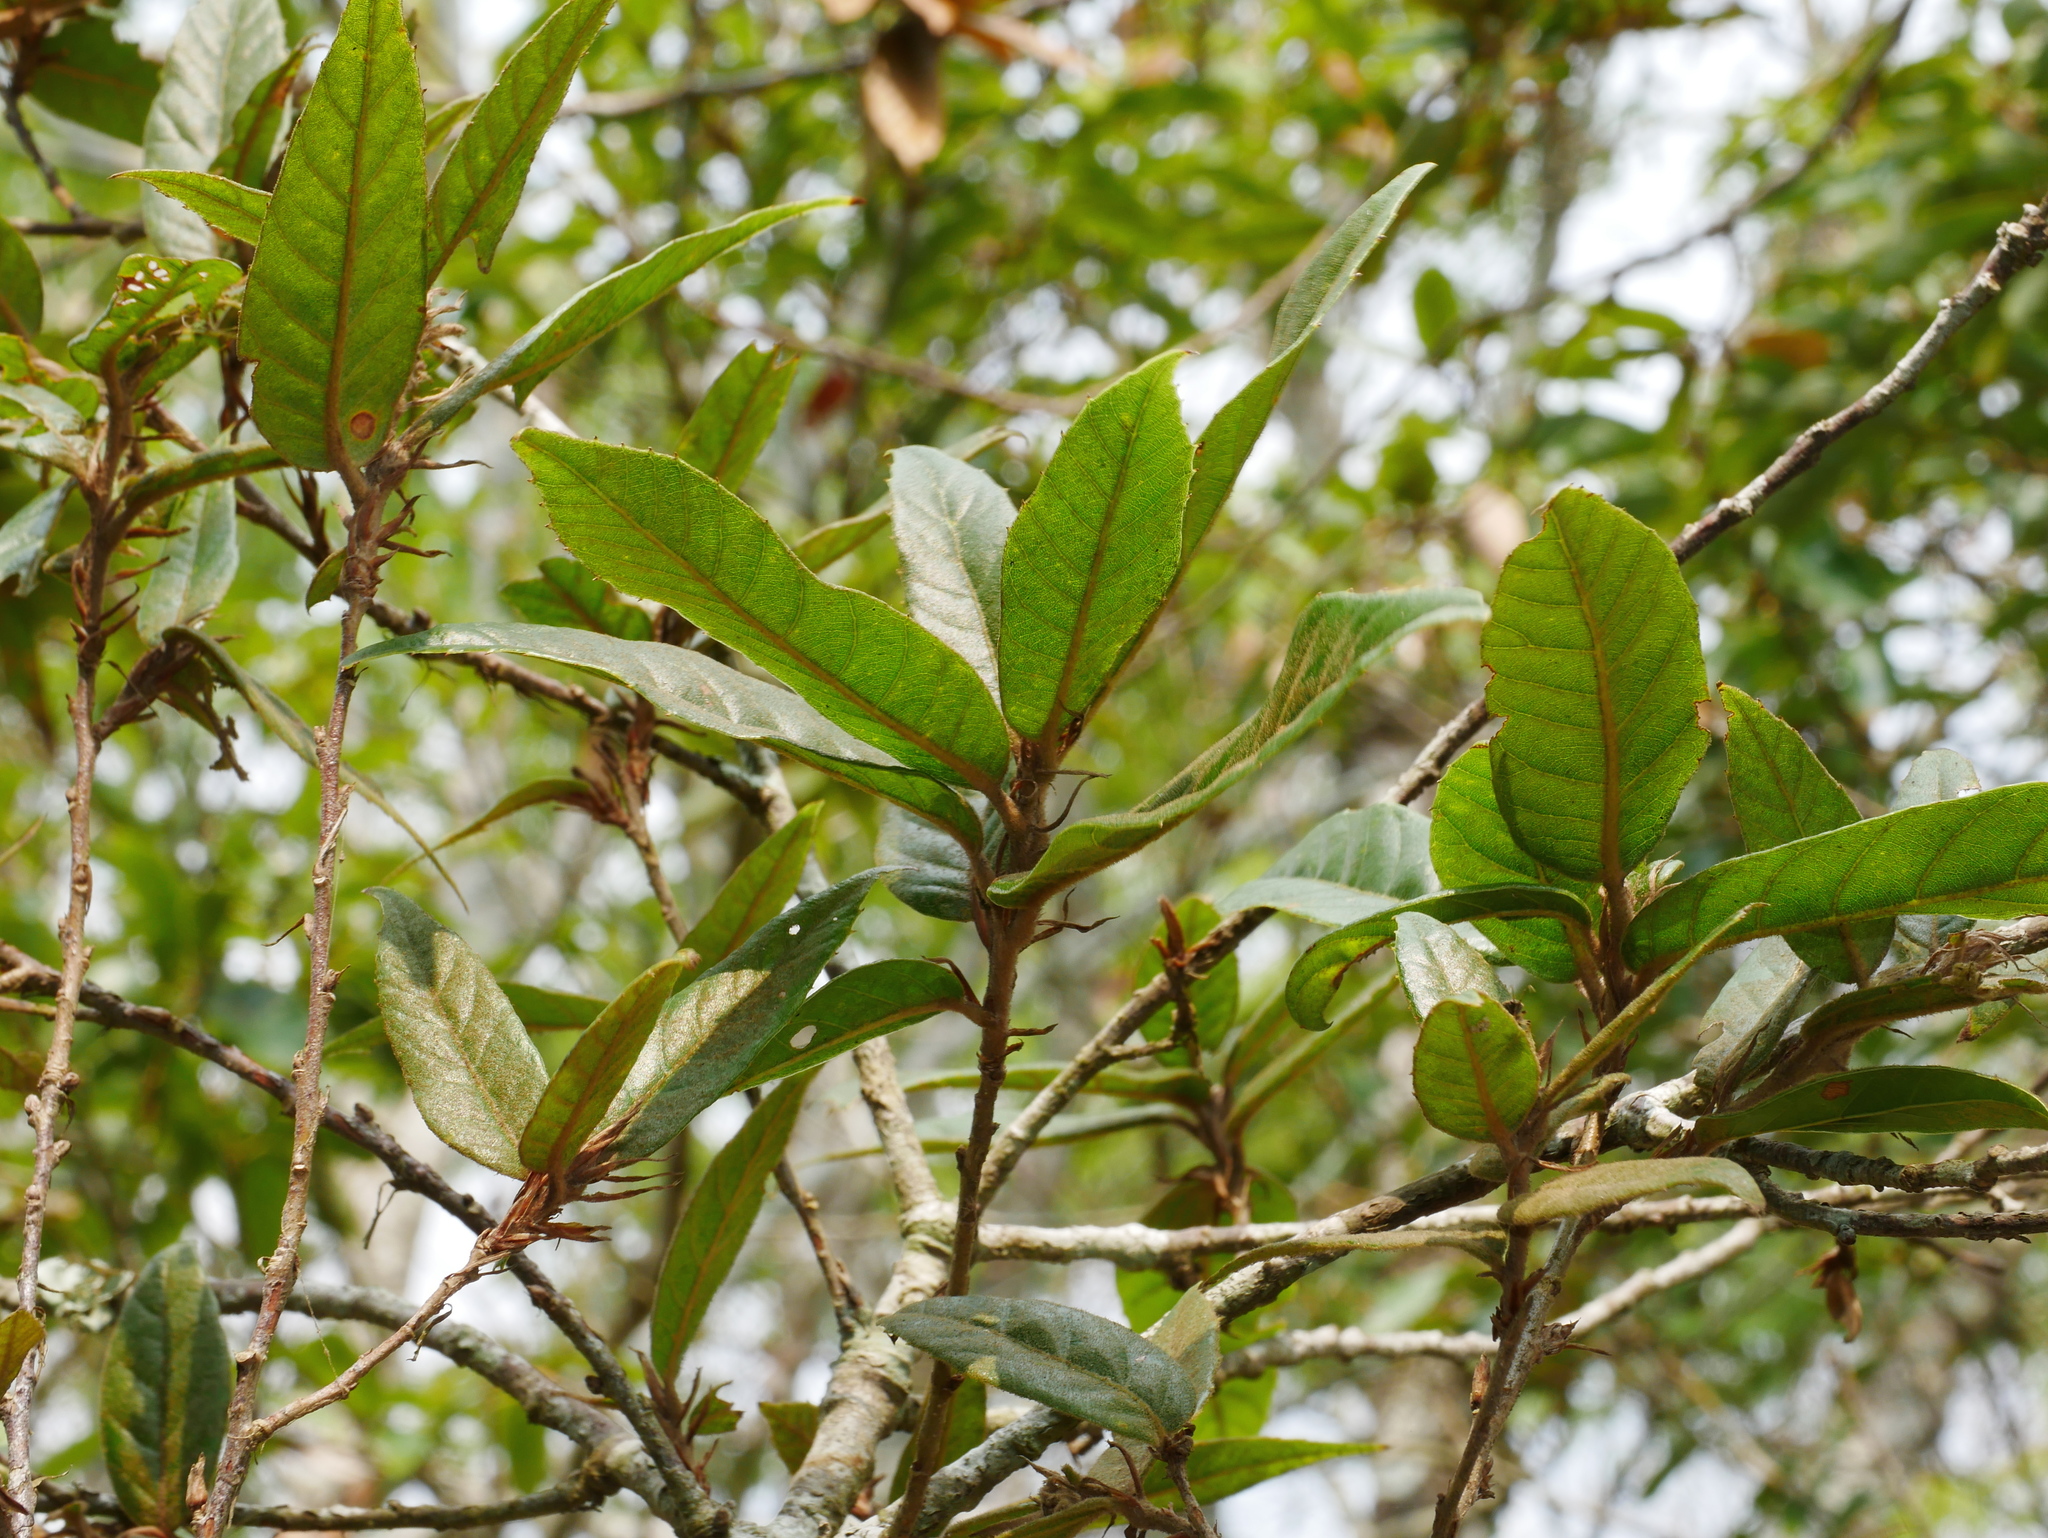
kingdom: Plantae
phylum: Tracheophyta
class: Magnoliopsida
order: Fagales
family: Fagaceae
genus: Quercus
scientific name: Quercus tatakaensis
